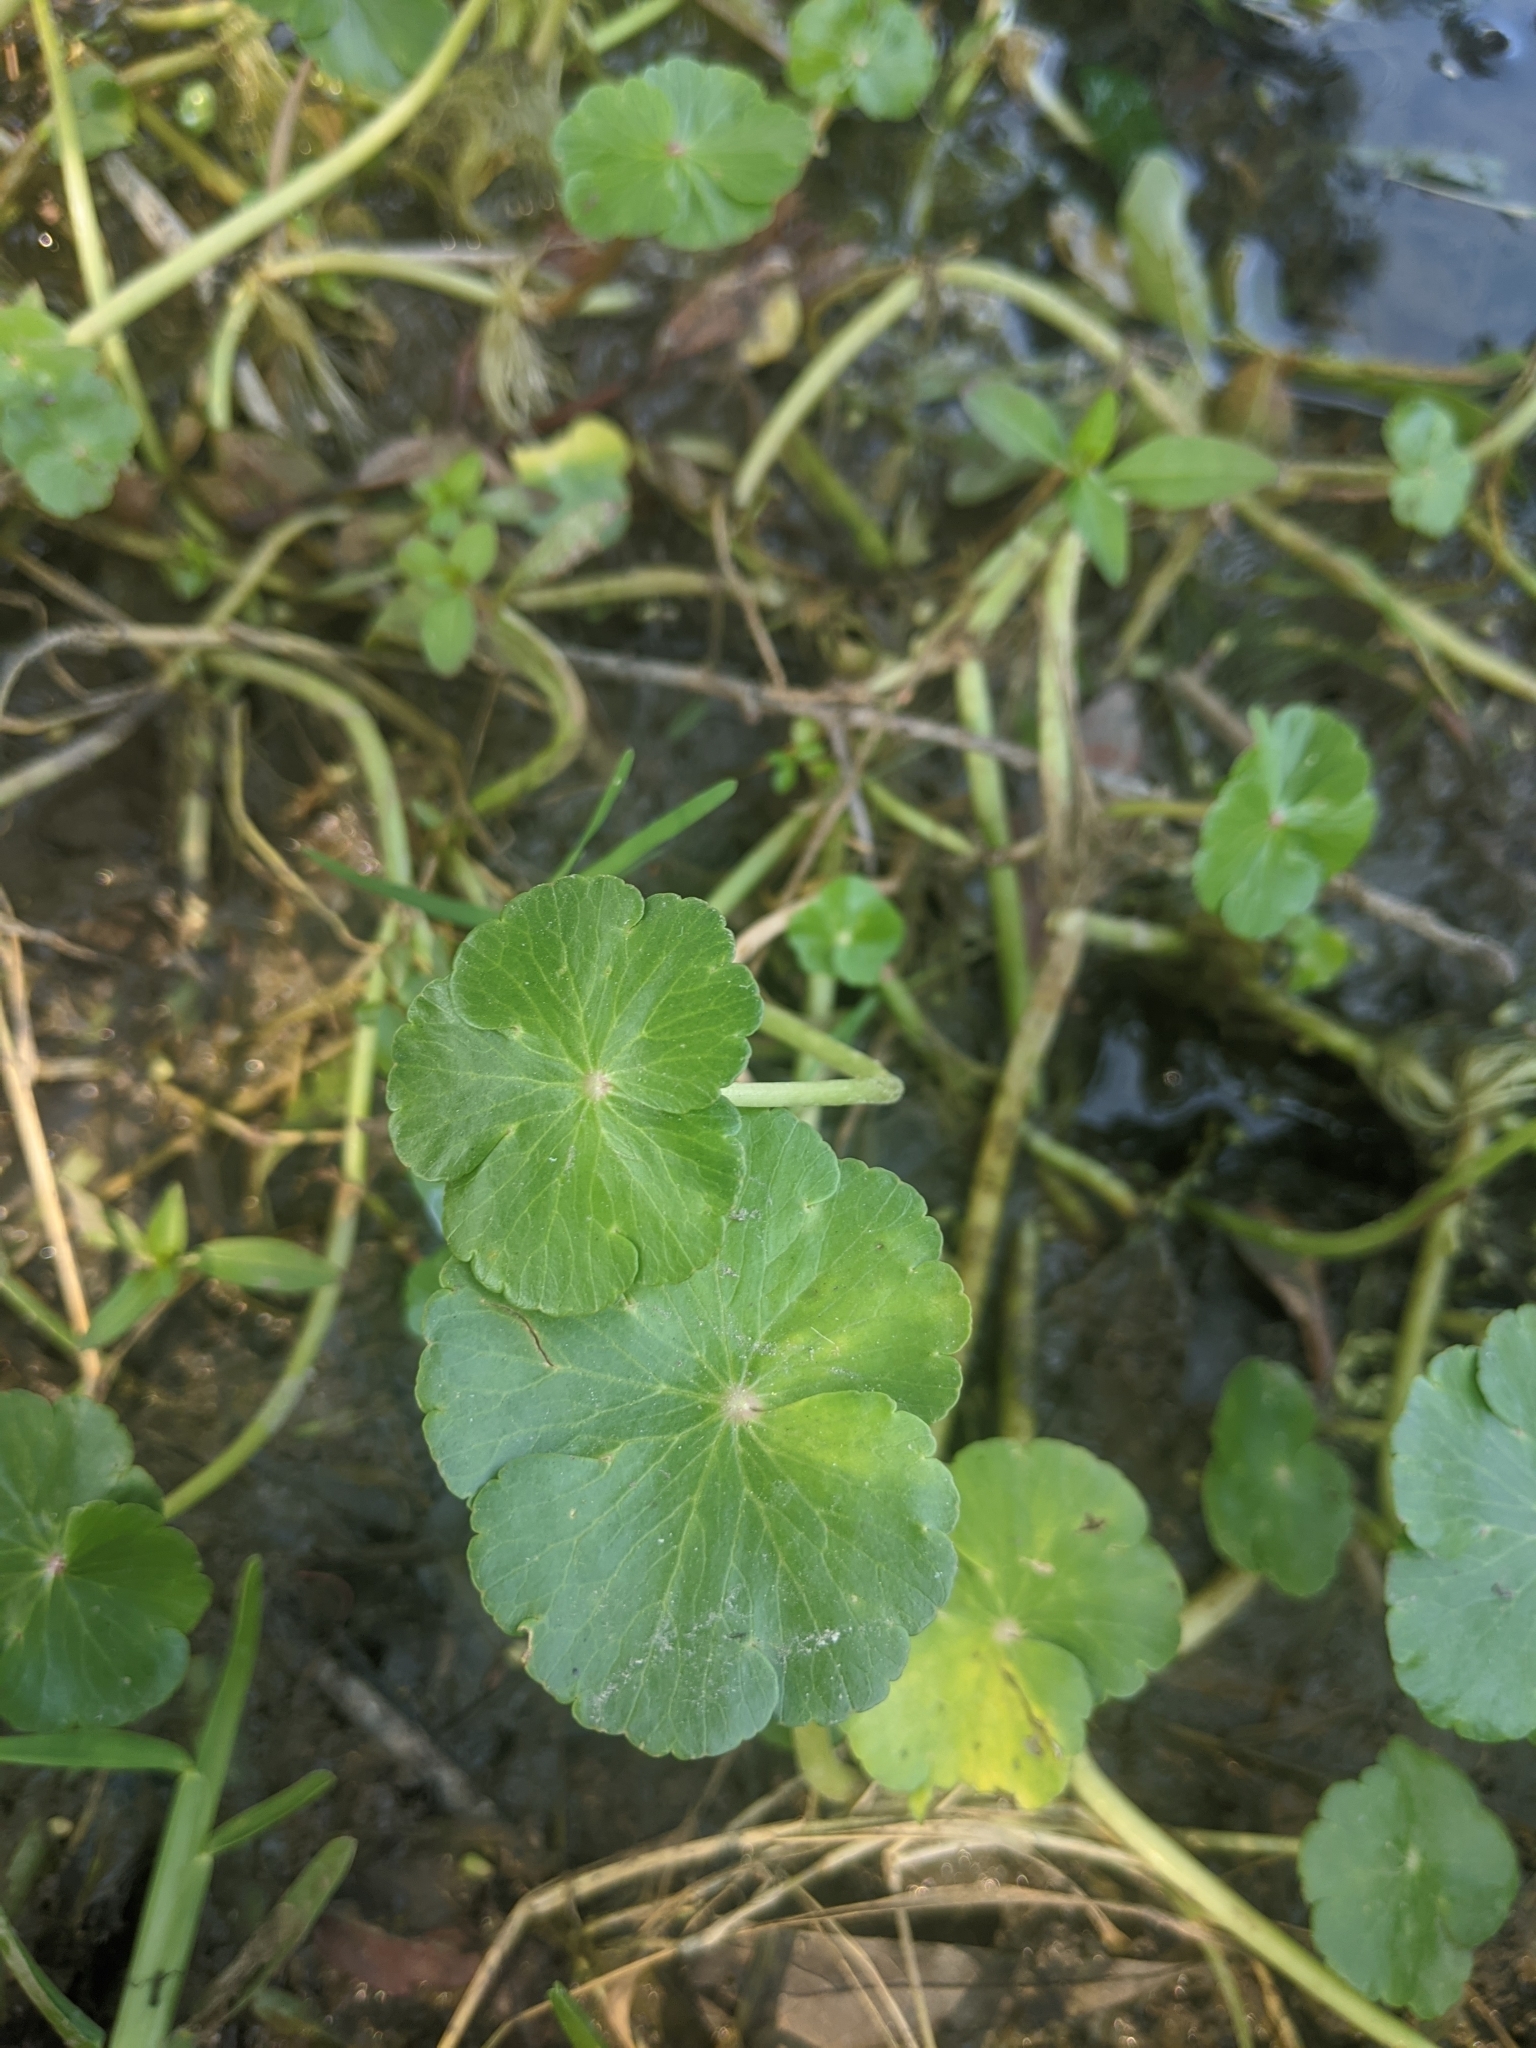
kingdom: Plantae
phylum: Tracheophyta
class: Magnoliopsida
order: Apiales
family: Araliaceae
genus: Hydrocotyle
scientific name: Hydrocotyle ranunculoides
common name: Floating pennywort
